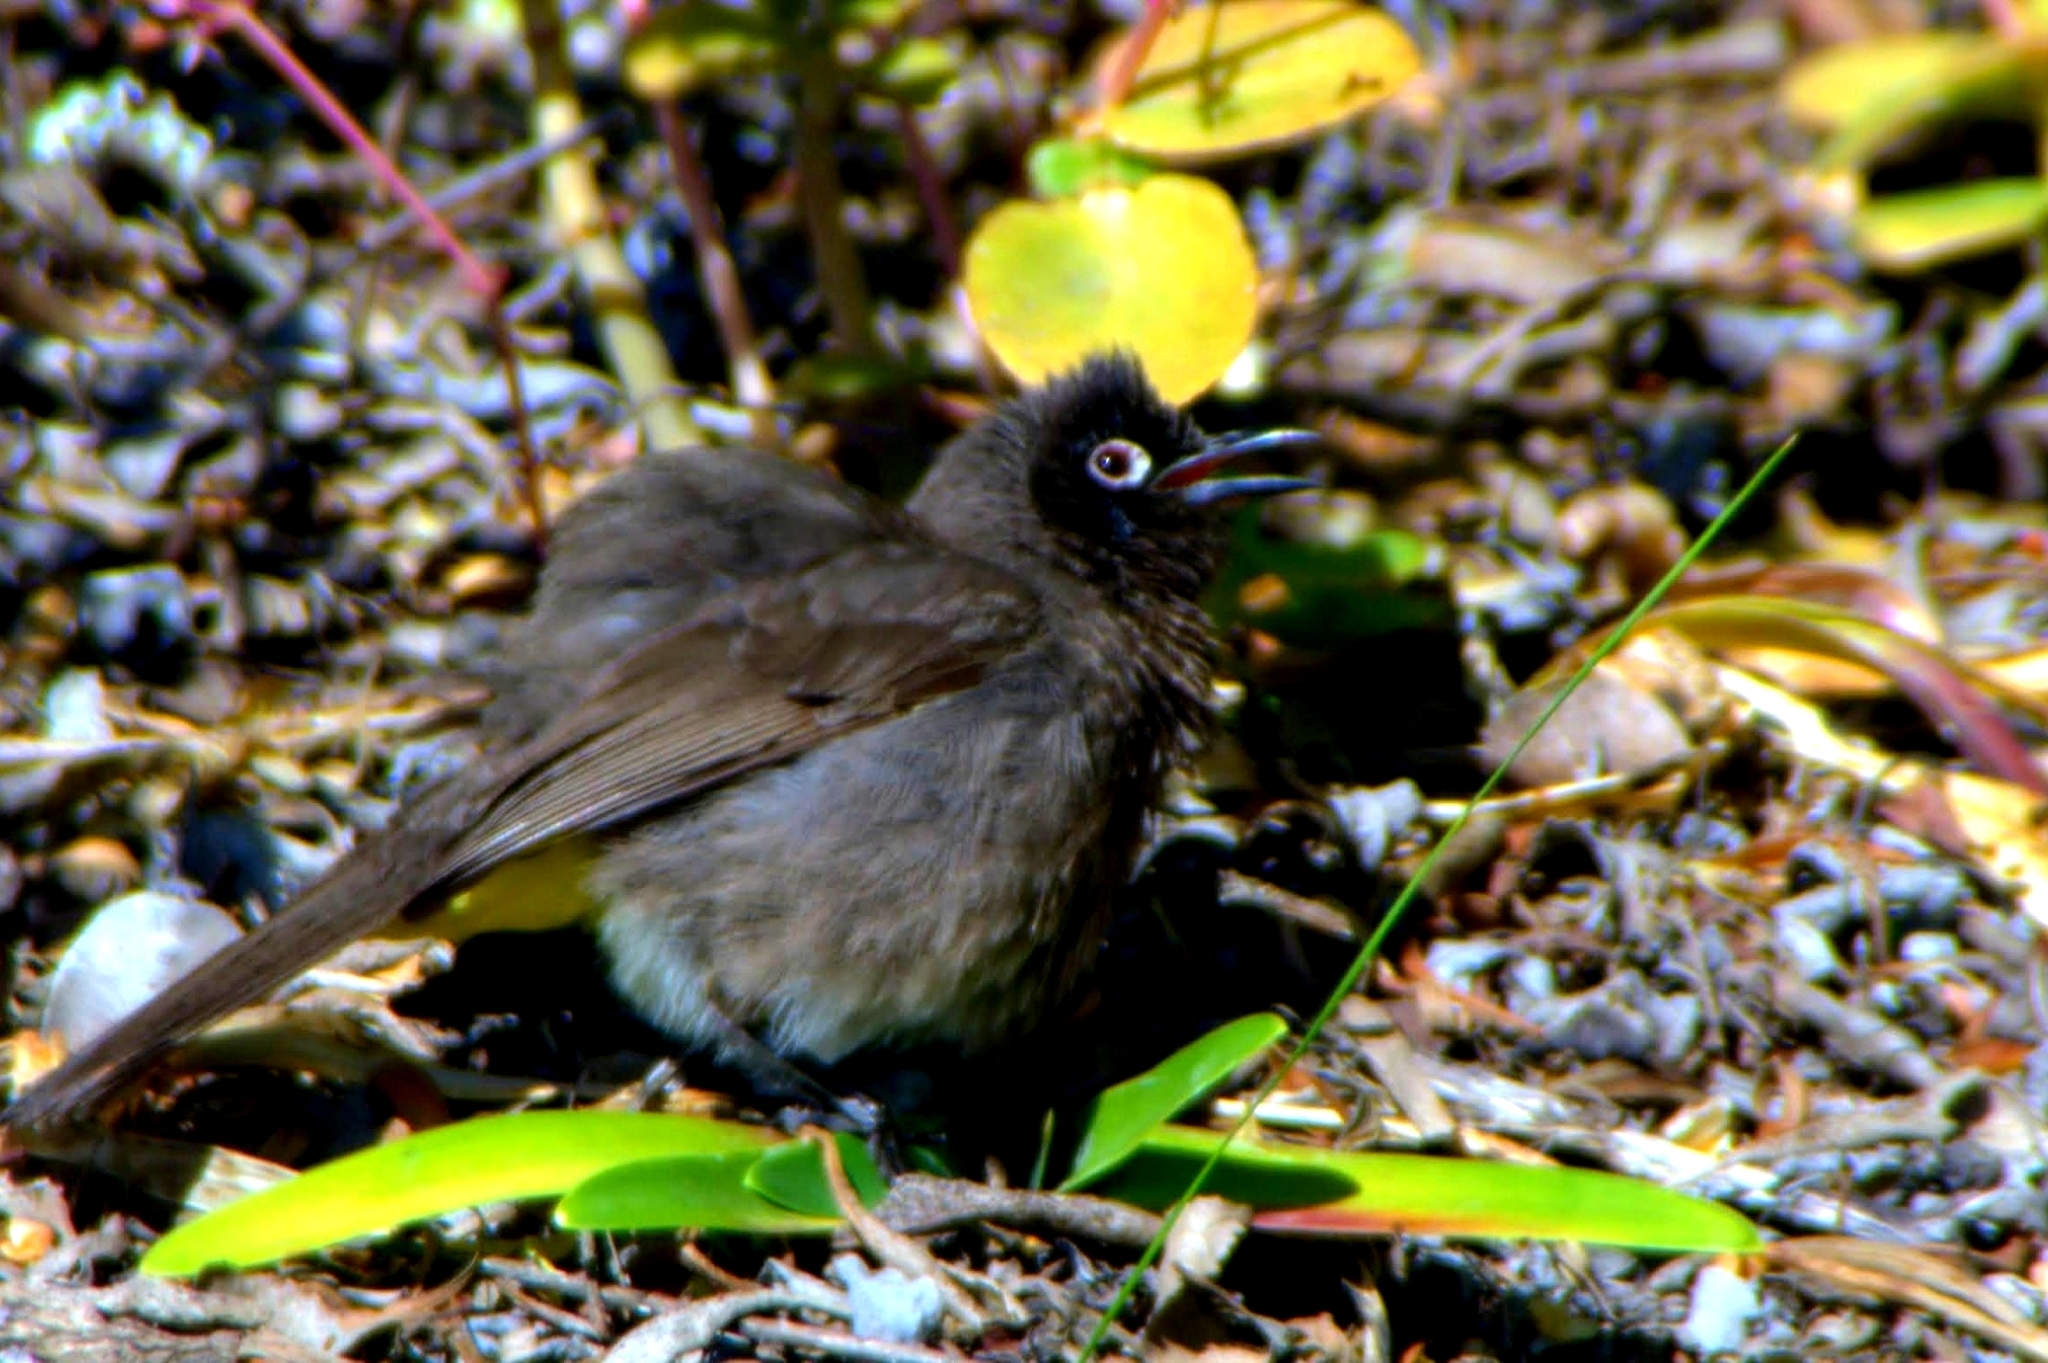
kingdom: Animalia
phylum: Chordata
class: Aves
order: Passeriformes
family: Pycnonotidae
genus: Pycnonotus
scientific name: Pycnonotus capensis
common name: Cape bulbul
